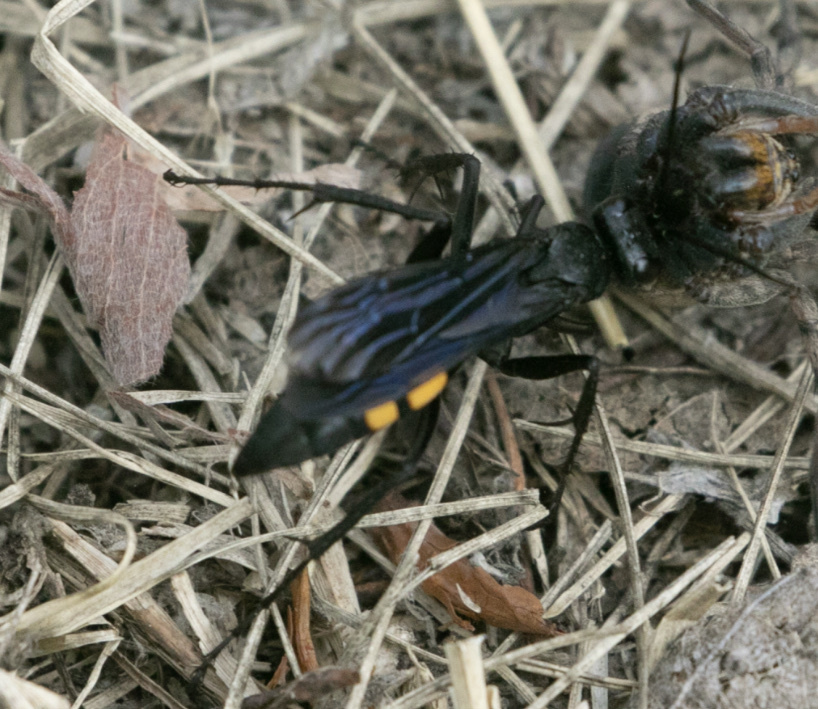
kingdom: Animalia
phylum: Arthropoda
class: Insecta
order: Hymenoptera
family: Pompilidae
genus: Lophopompilus
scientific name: Lophopompilus samariensis
